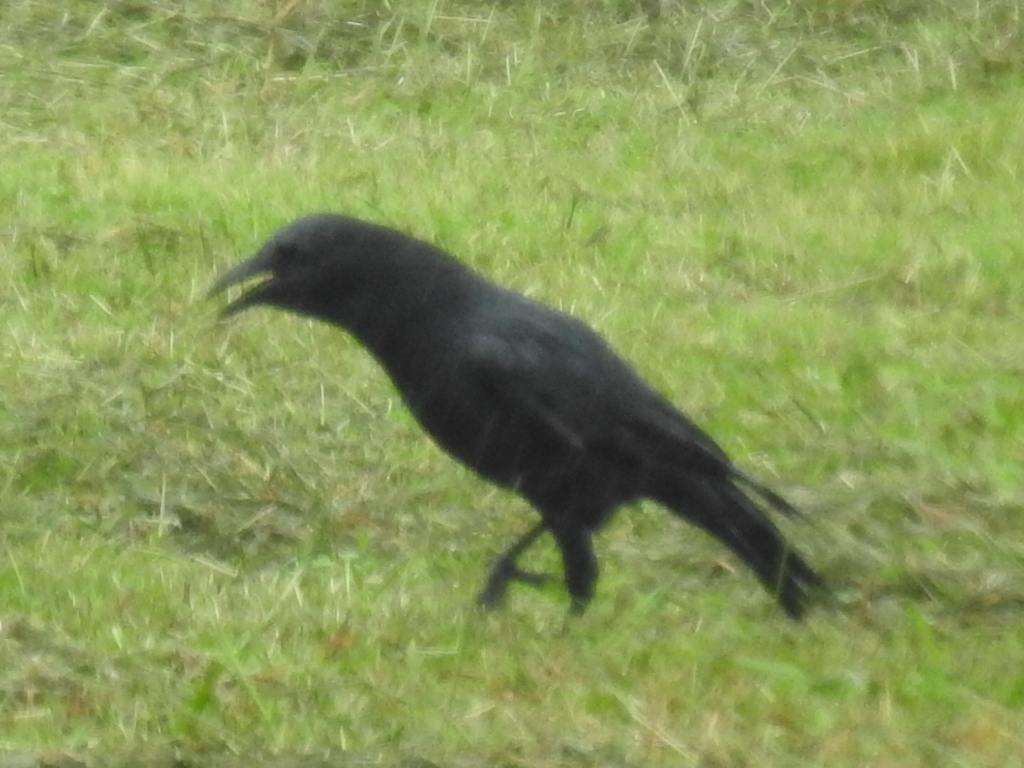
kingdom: Animalia
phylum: Chordata
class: Aves
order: Passeriformes
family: Corvidae
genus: Corvus
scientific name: Corvus brachyrhynchos
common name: American crow
